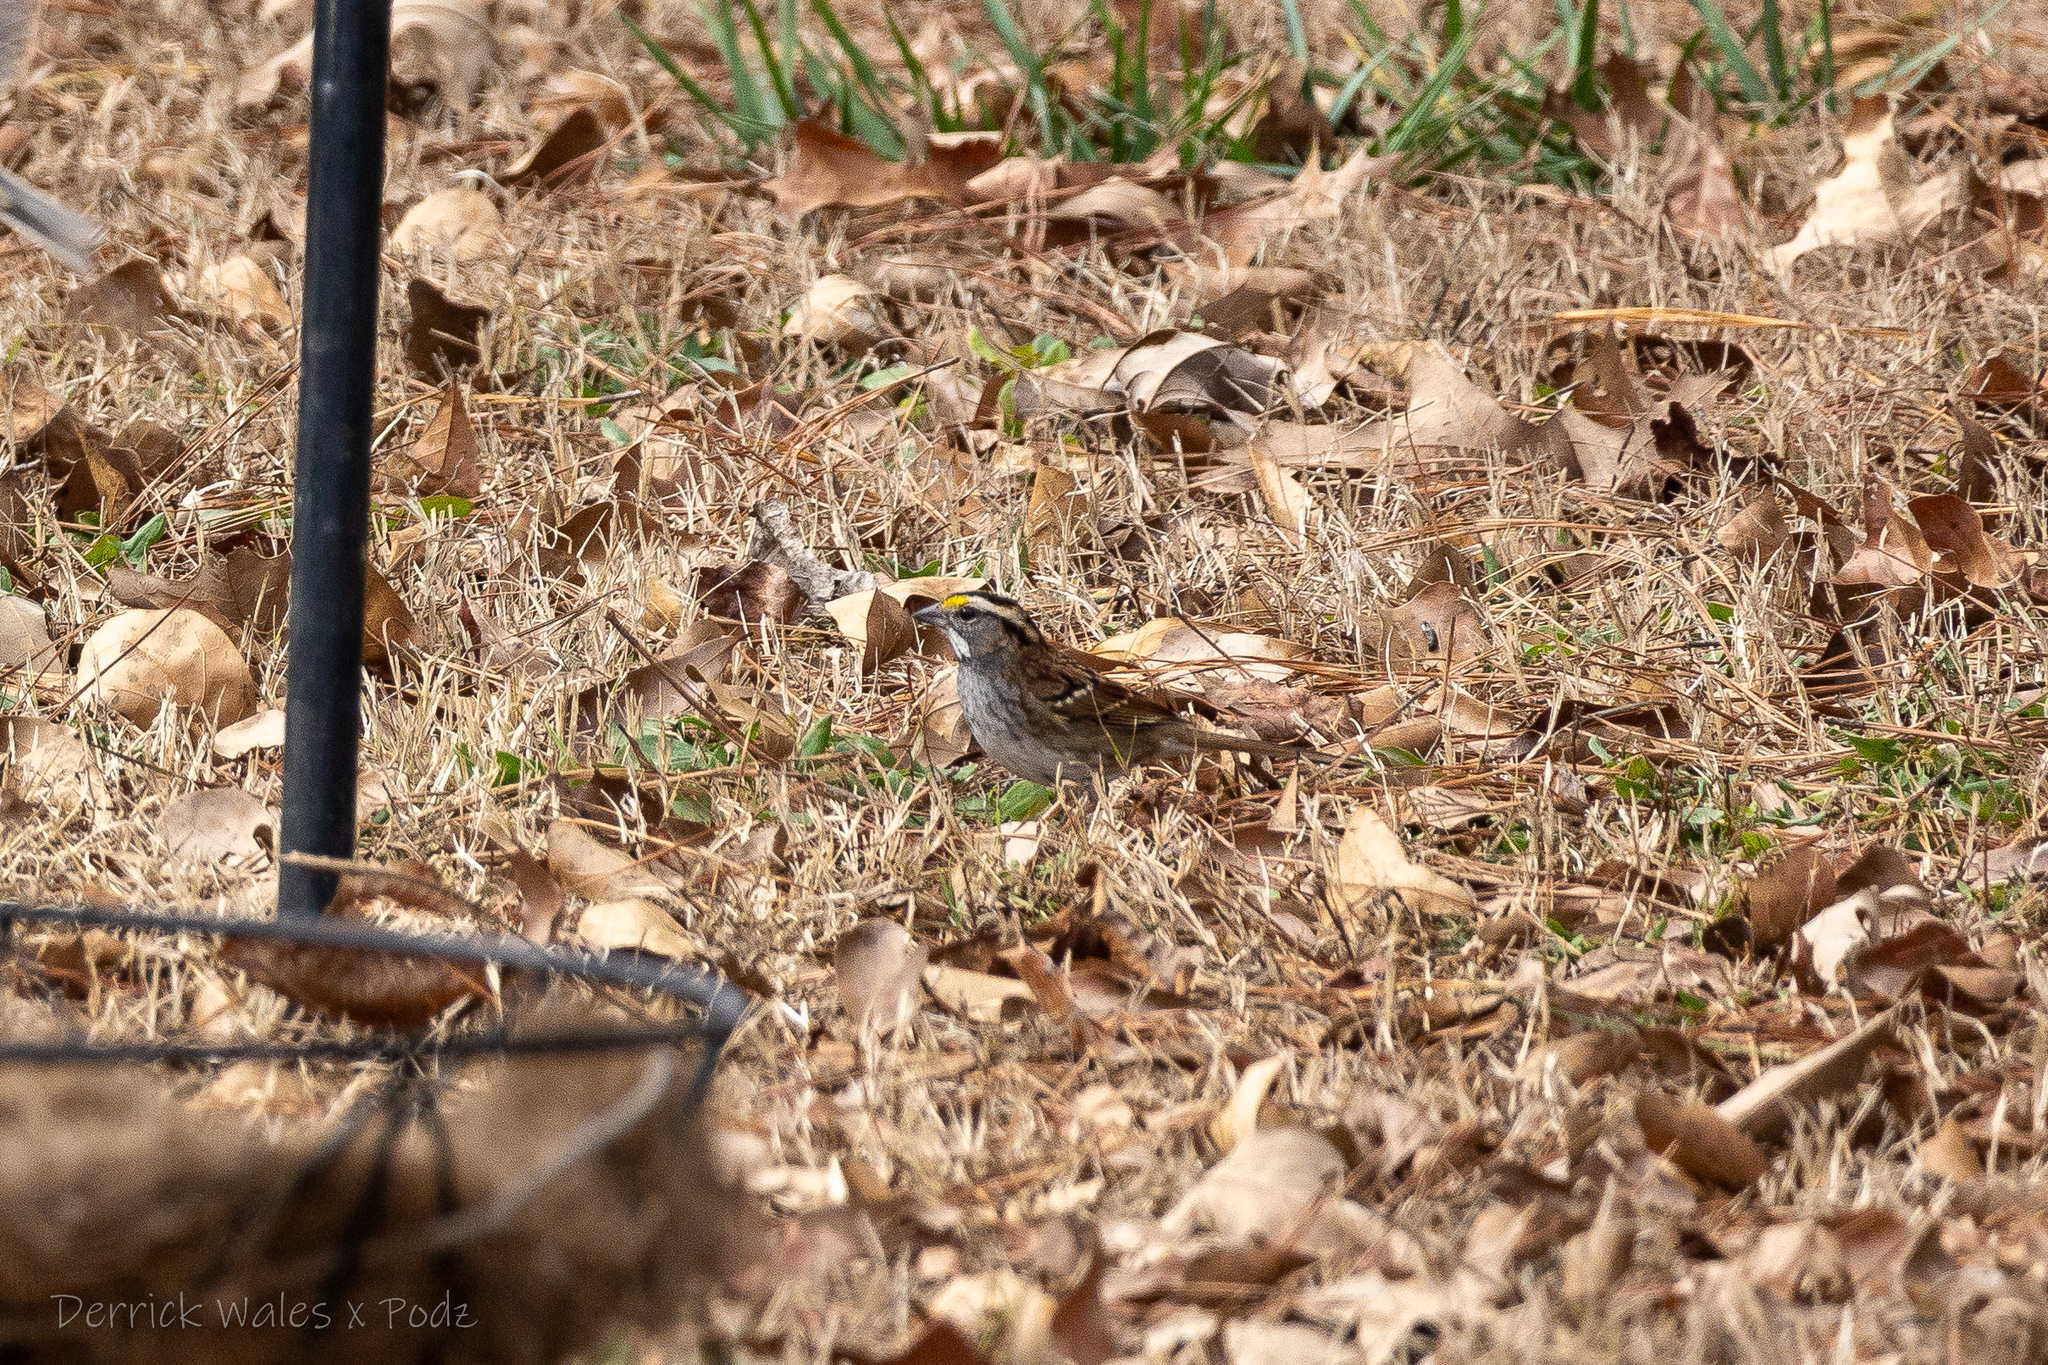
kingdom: Animalia
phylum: Chordata
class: Aves
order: Passeriformes
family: Passerellidae
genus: Zonotrichia
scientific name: Zonotrichia albicollis
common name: White-throated sparrow
